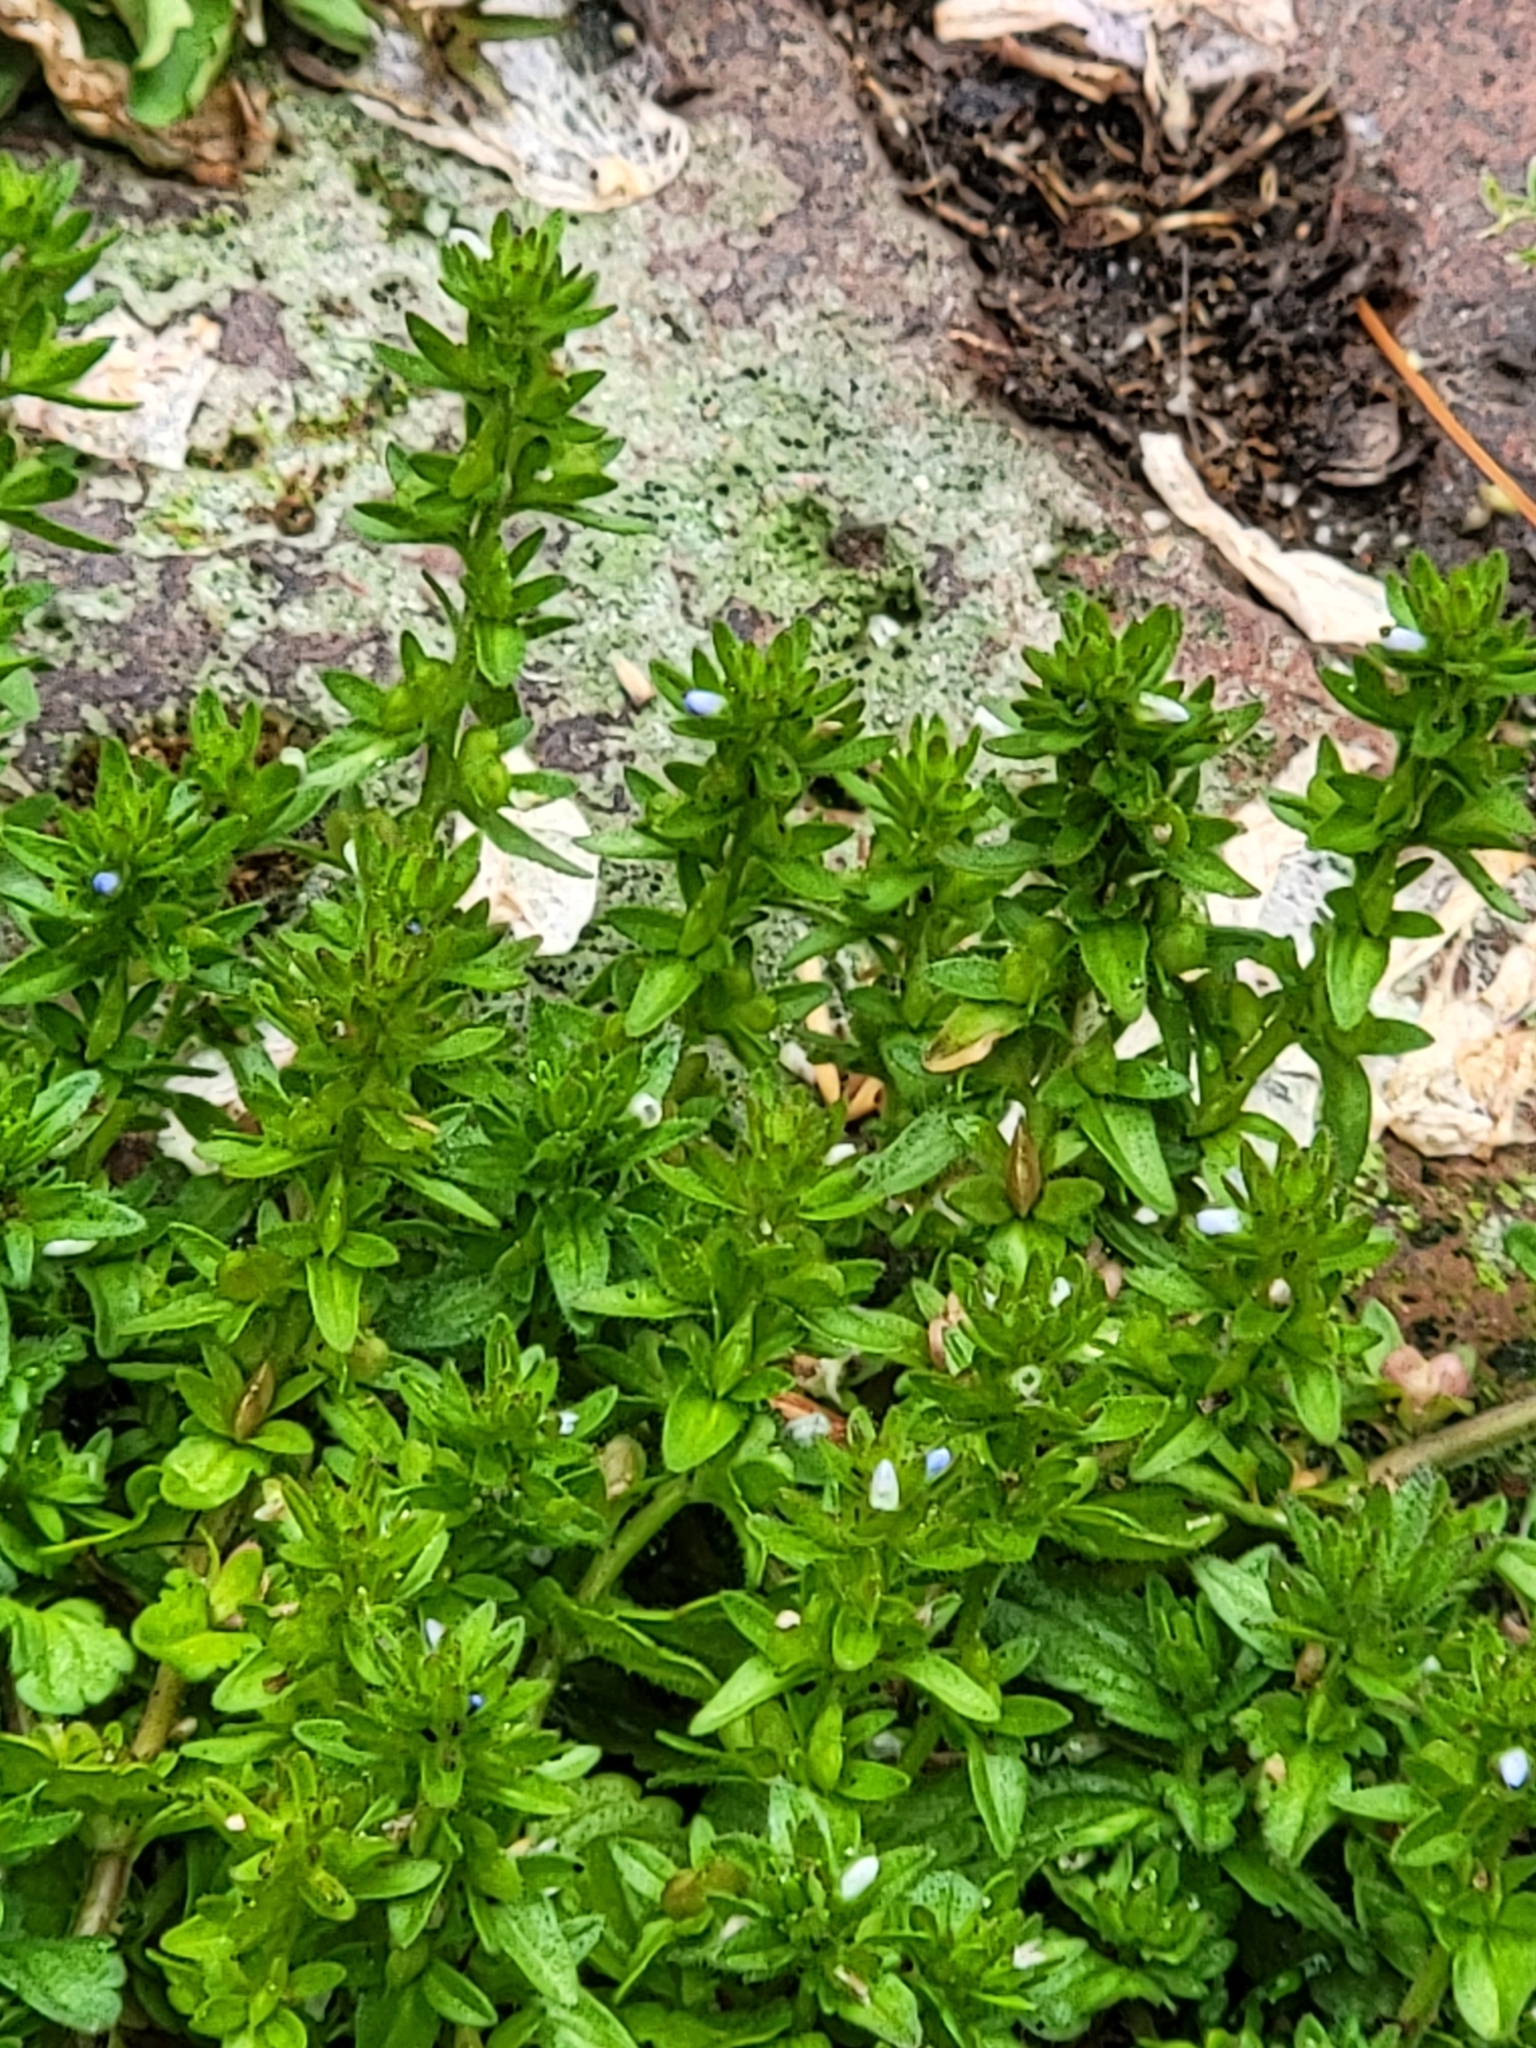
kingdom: Plantae
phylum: Tracheophyta
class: Magnoliopsida
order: Lamiales
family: Plantaginaceae
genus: Veronica
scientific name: Veronica arvensis
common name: Corn speedwell
